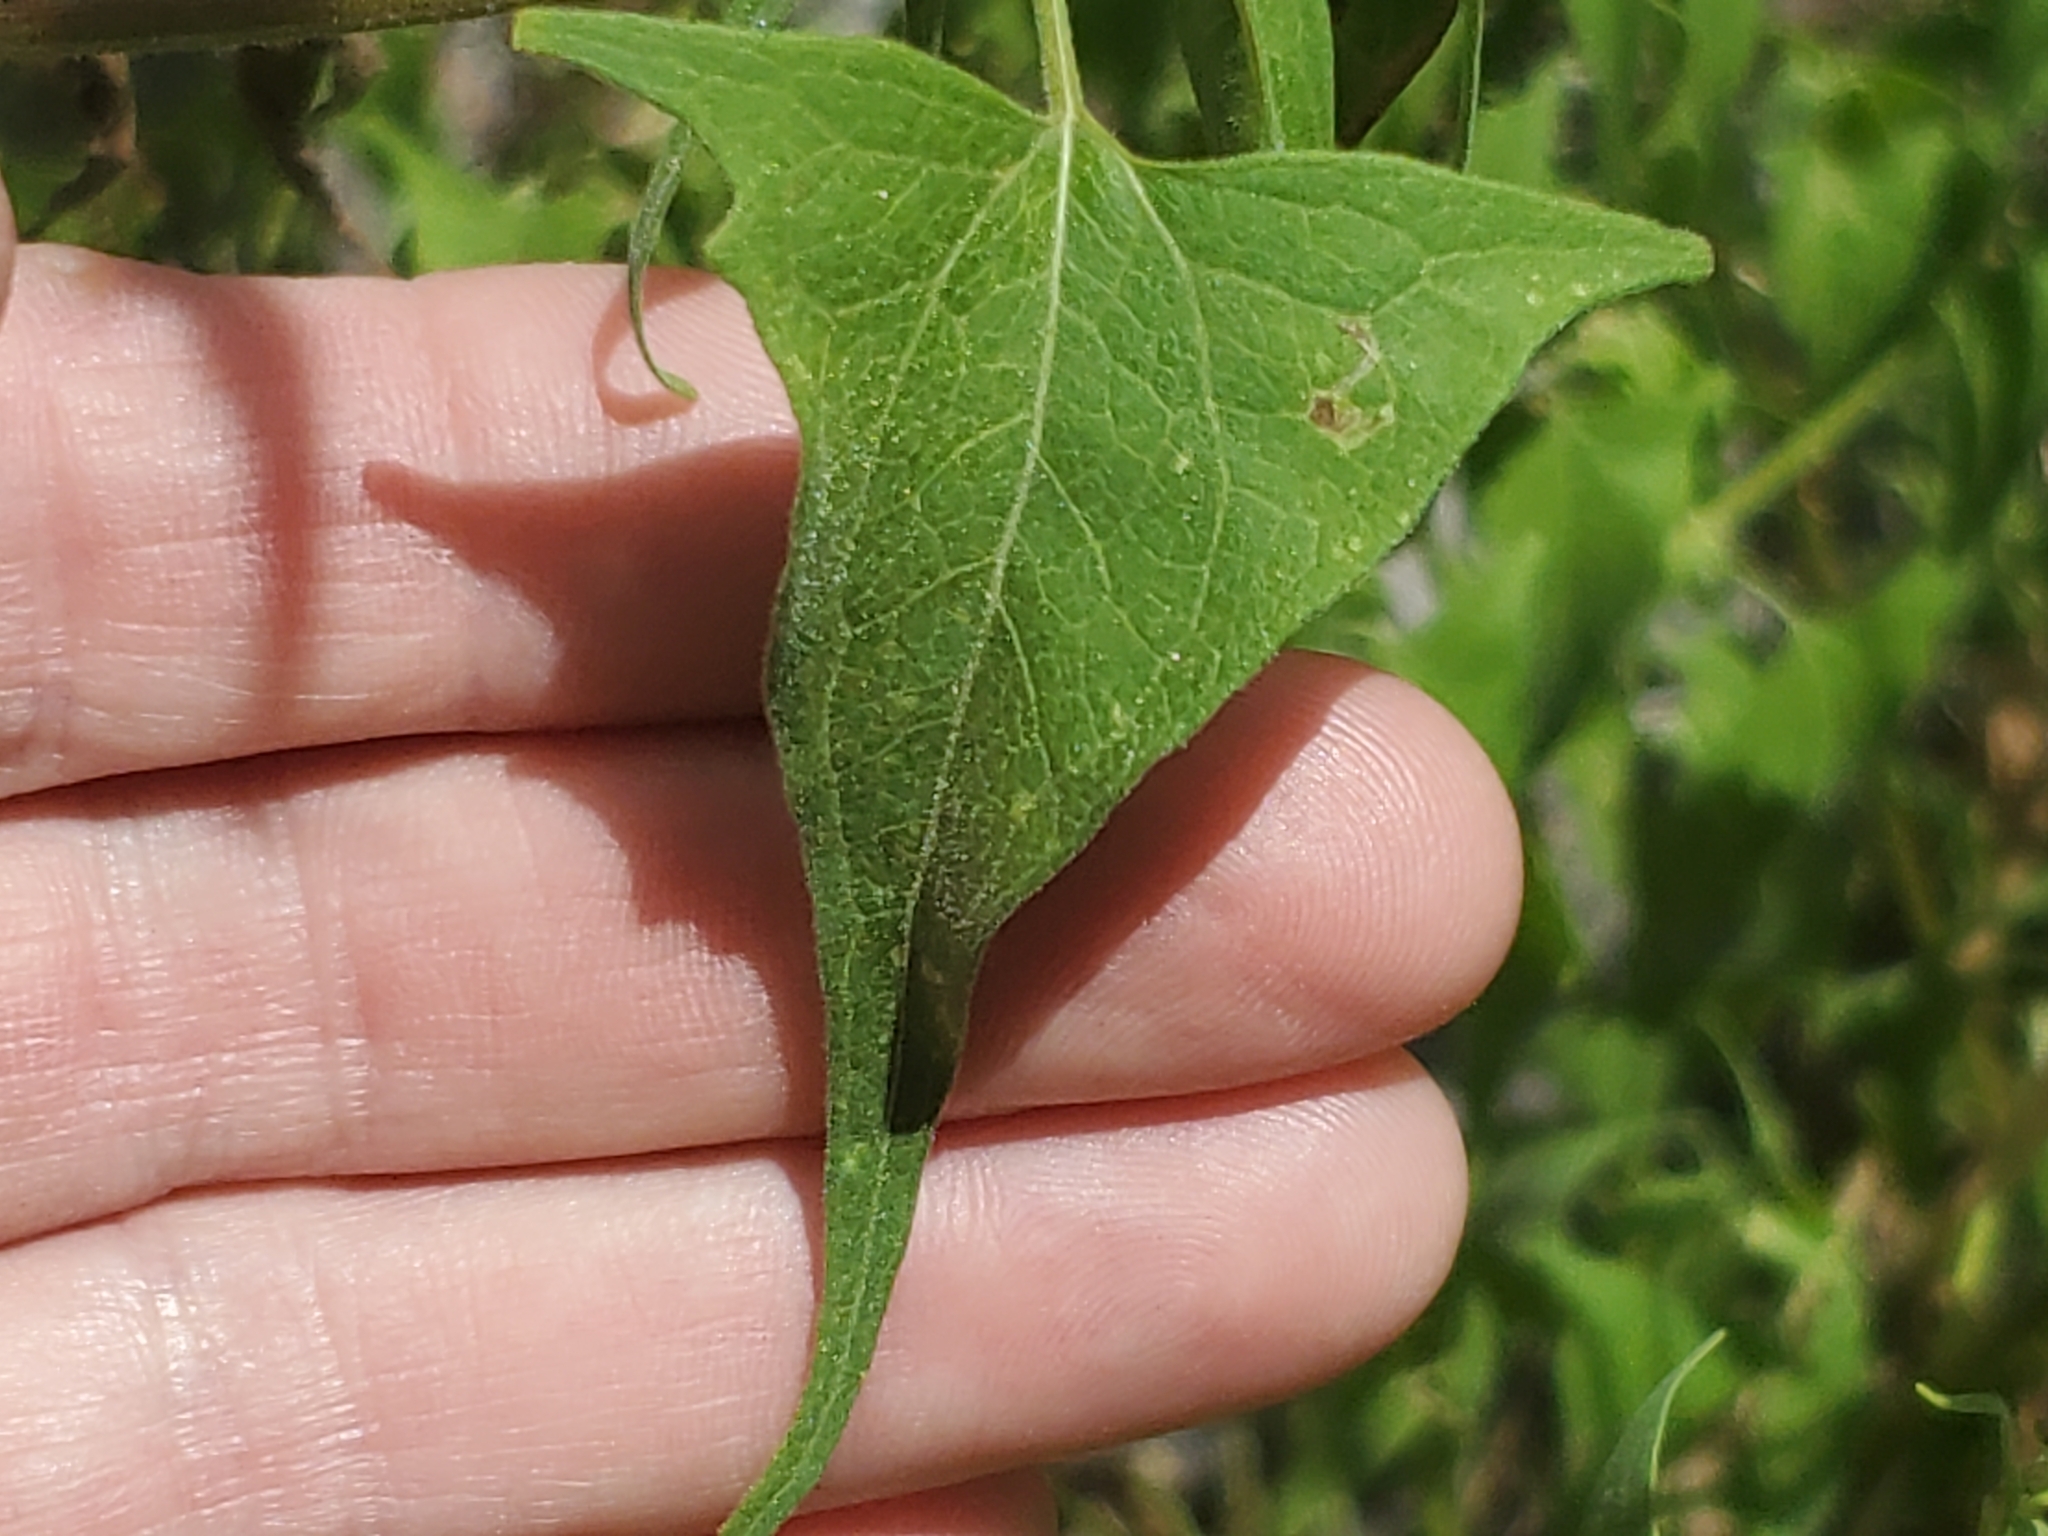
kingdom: Plantae
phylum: Tracheophyta
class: Magnoliopsida
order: Asterales
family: Asteraceae
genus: Pericome
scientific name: Pericome caudata
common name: Taperleaf
